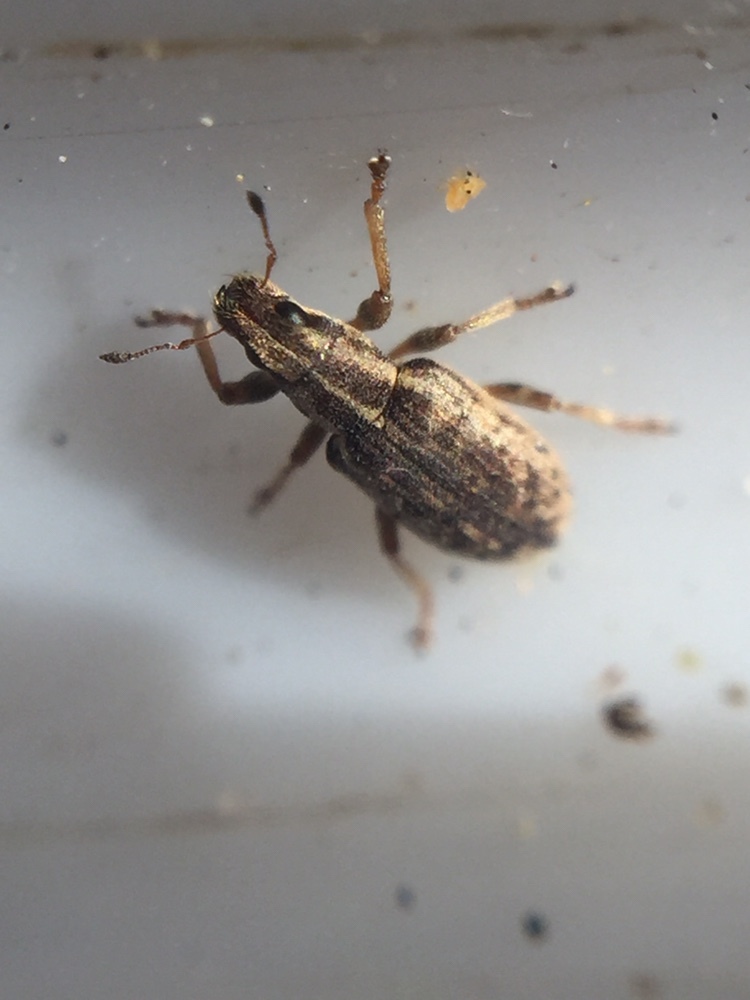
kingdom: Animalia
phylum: Arthropoda
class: Insecta
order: Coleoptera
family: Curculionidae
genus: Sitona
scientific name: Sitona discoideus
